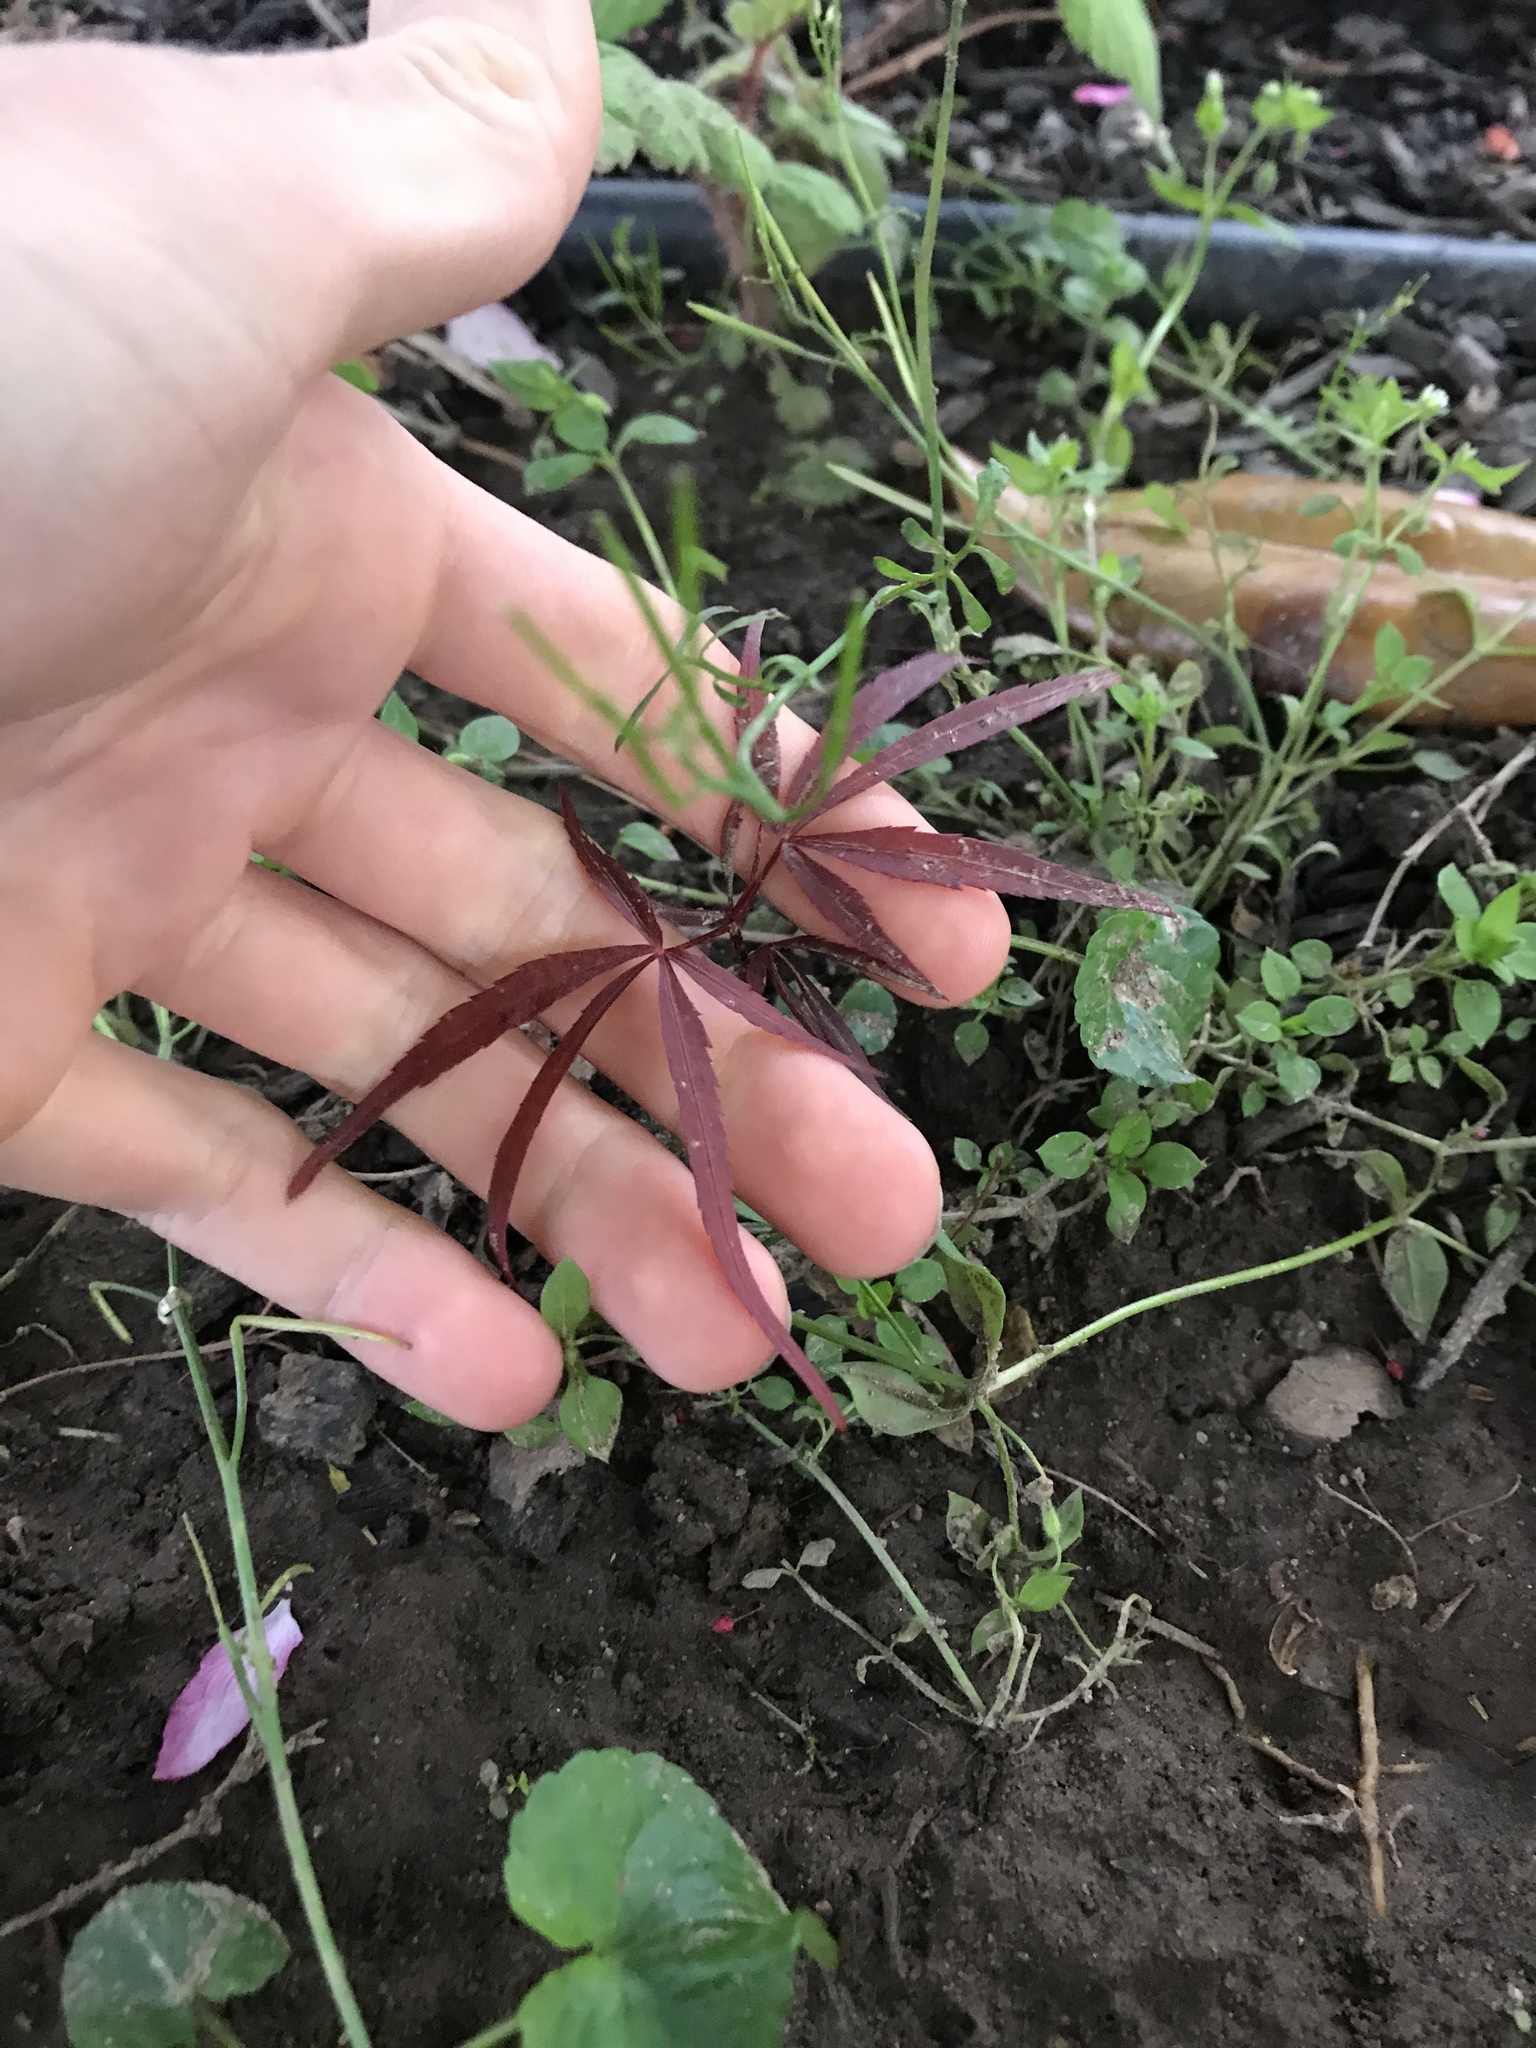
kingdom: Plantae
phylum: Tracheophyta
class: Magnoliopsida
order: Sapindales
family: Sapindaceae
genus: Acer
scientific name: Acer palmatum
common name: Japanese maple
